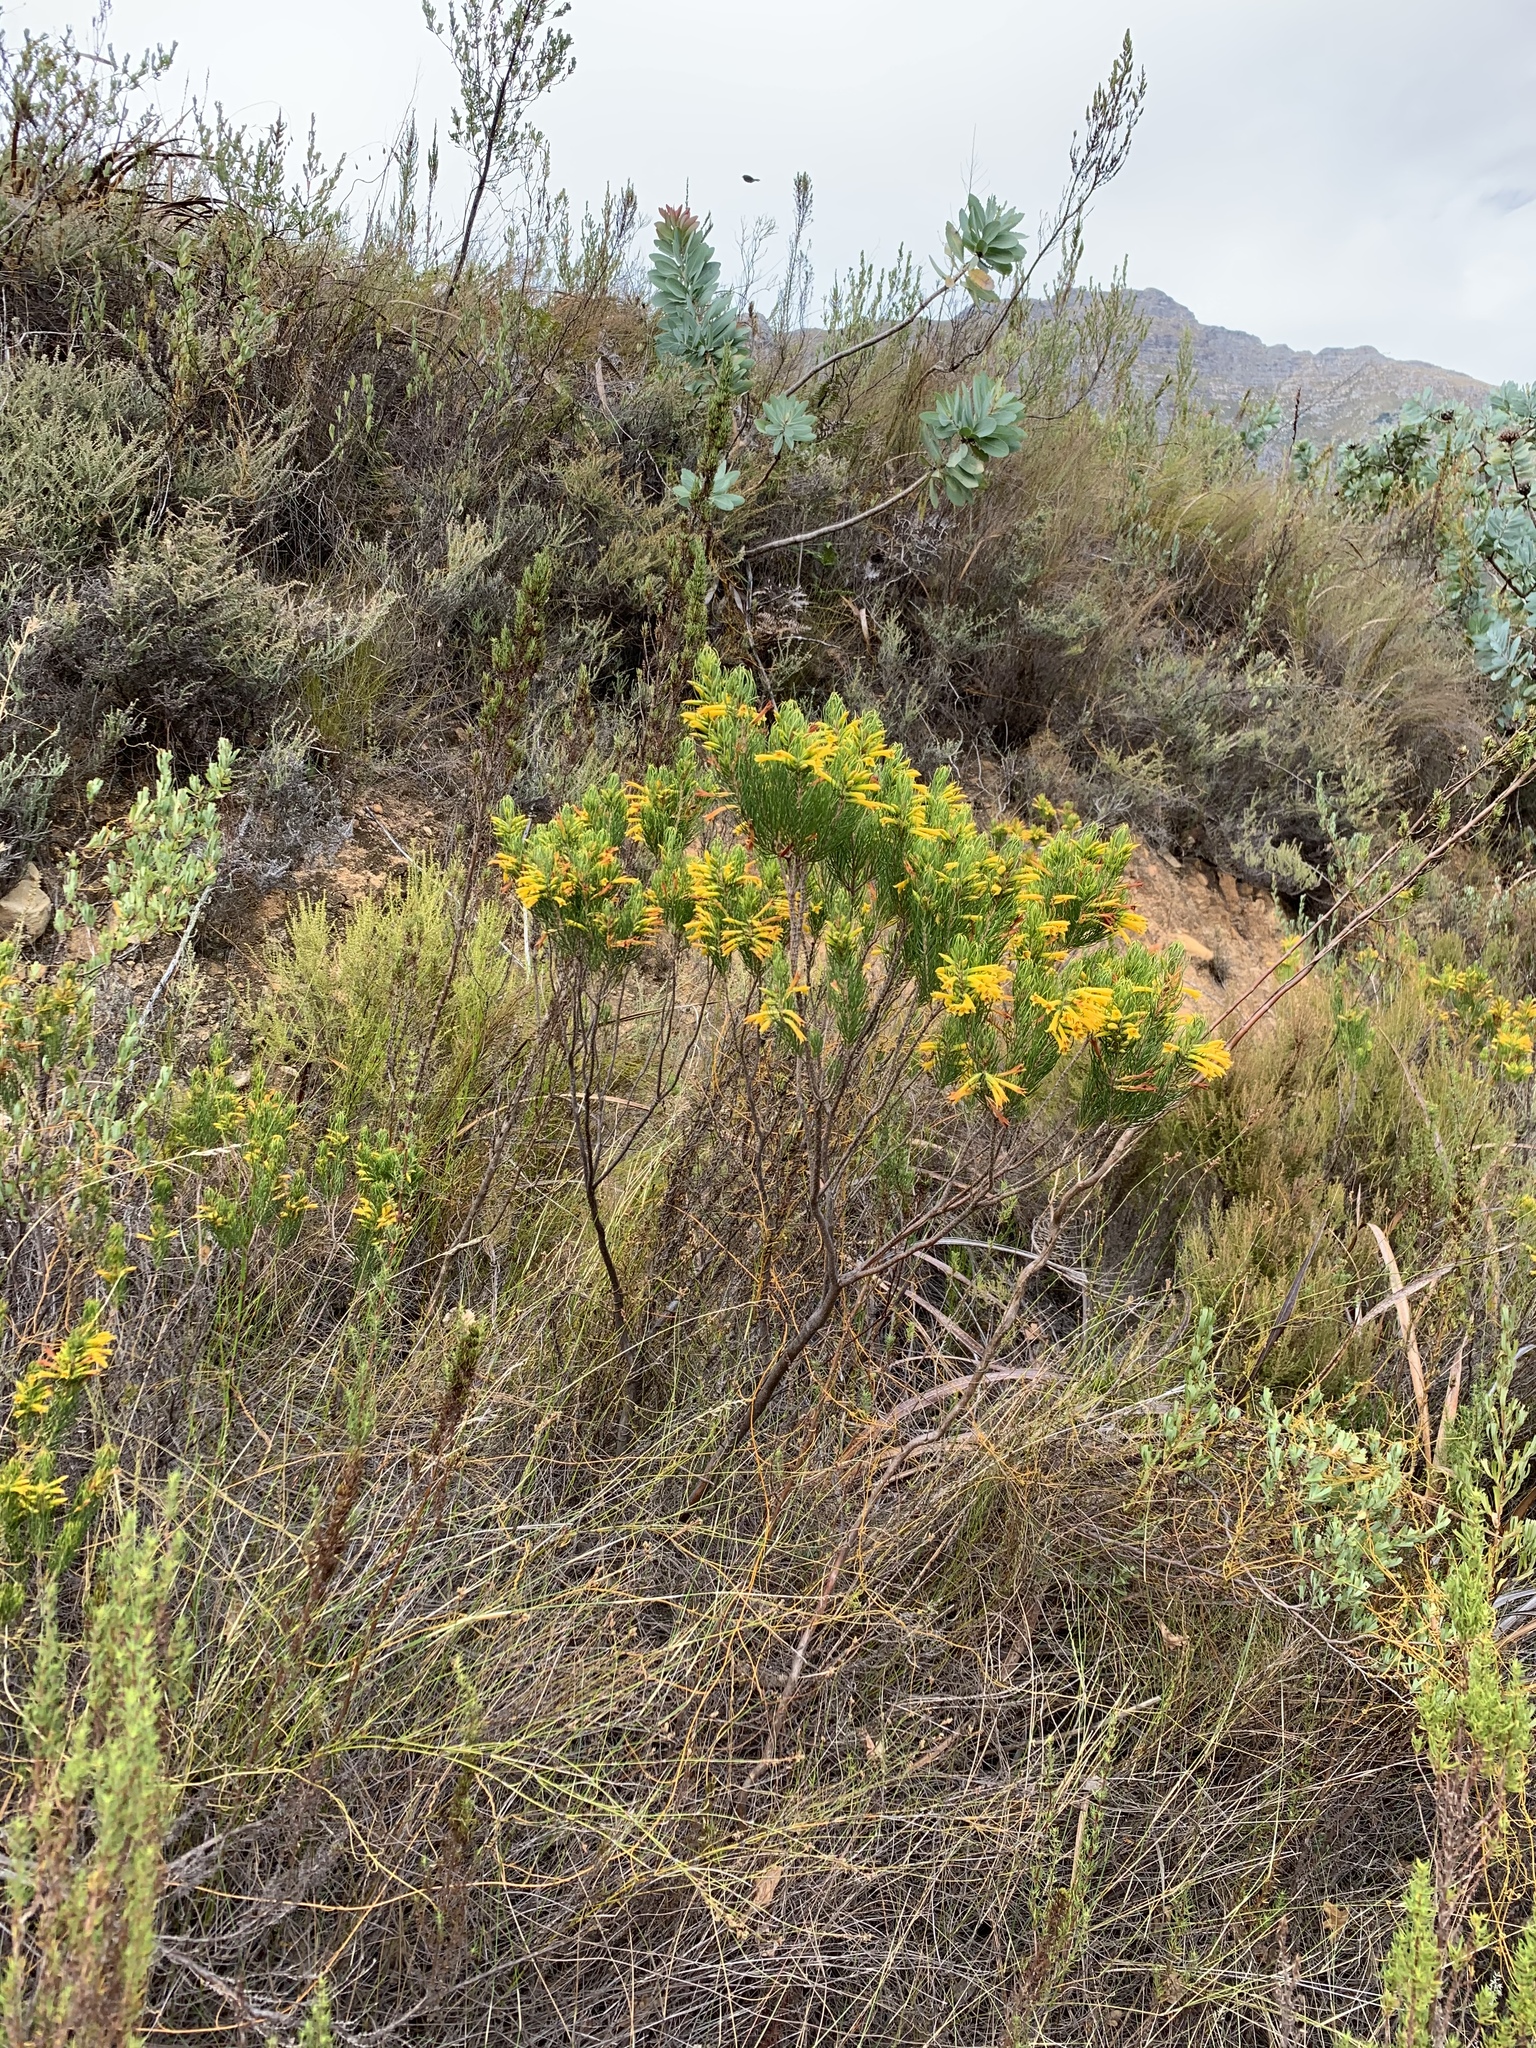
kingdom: Plantae
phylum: Tracheophyta
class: Magnoliopsida
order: Ericales
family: Ericaceae
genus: Erica
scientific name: Erica grandiflora
